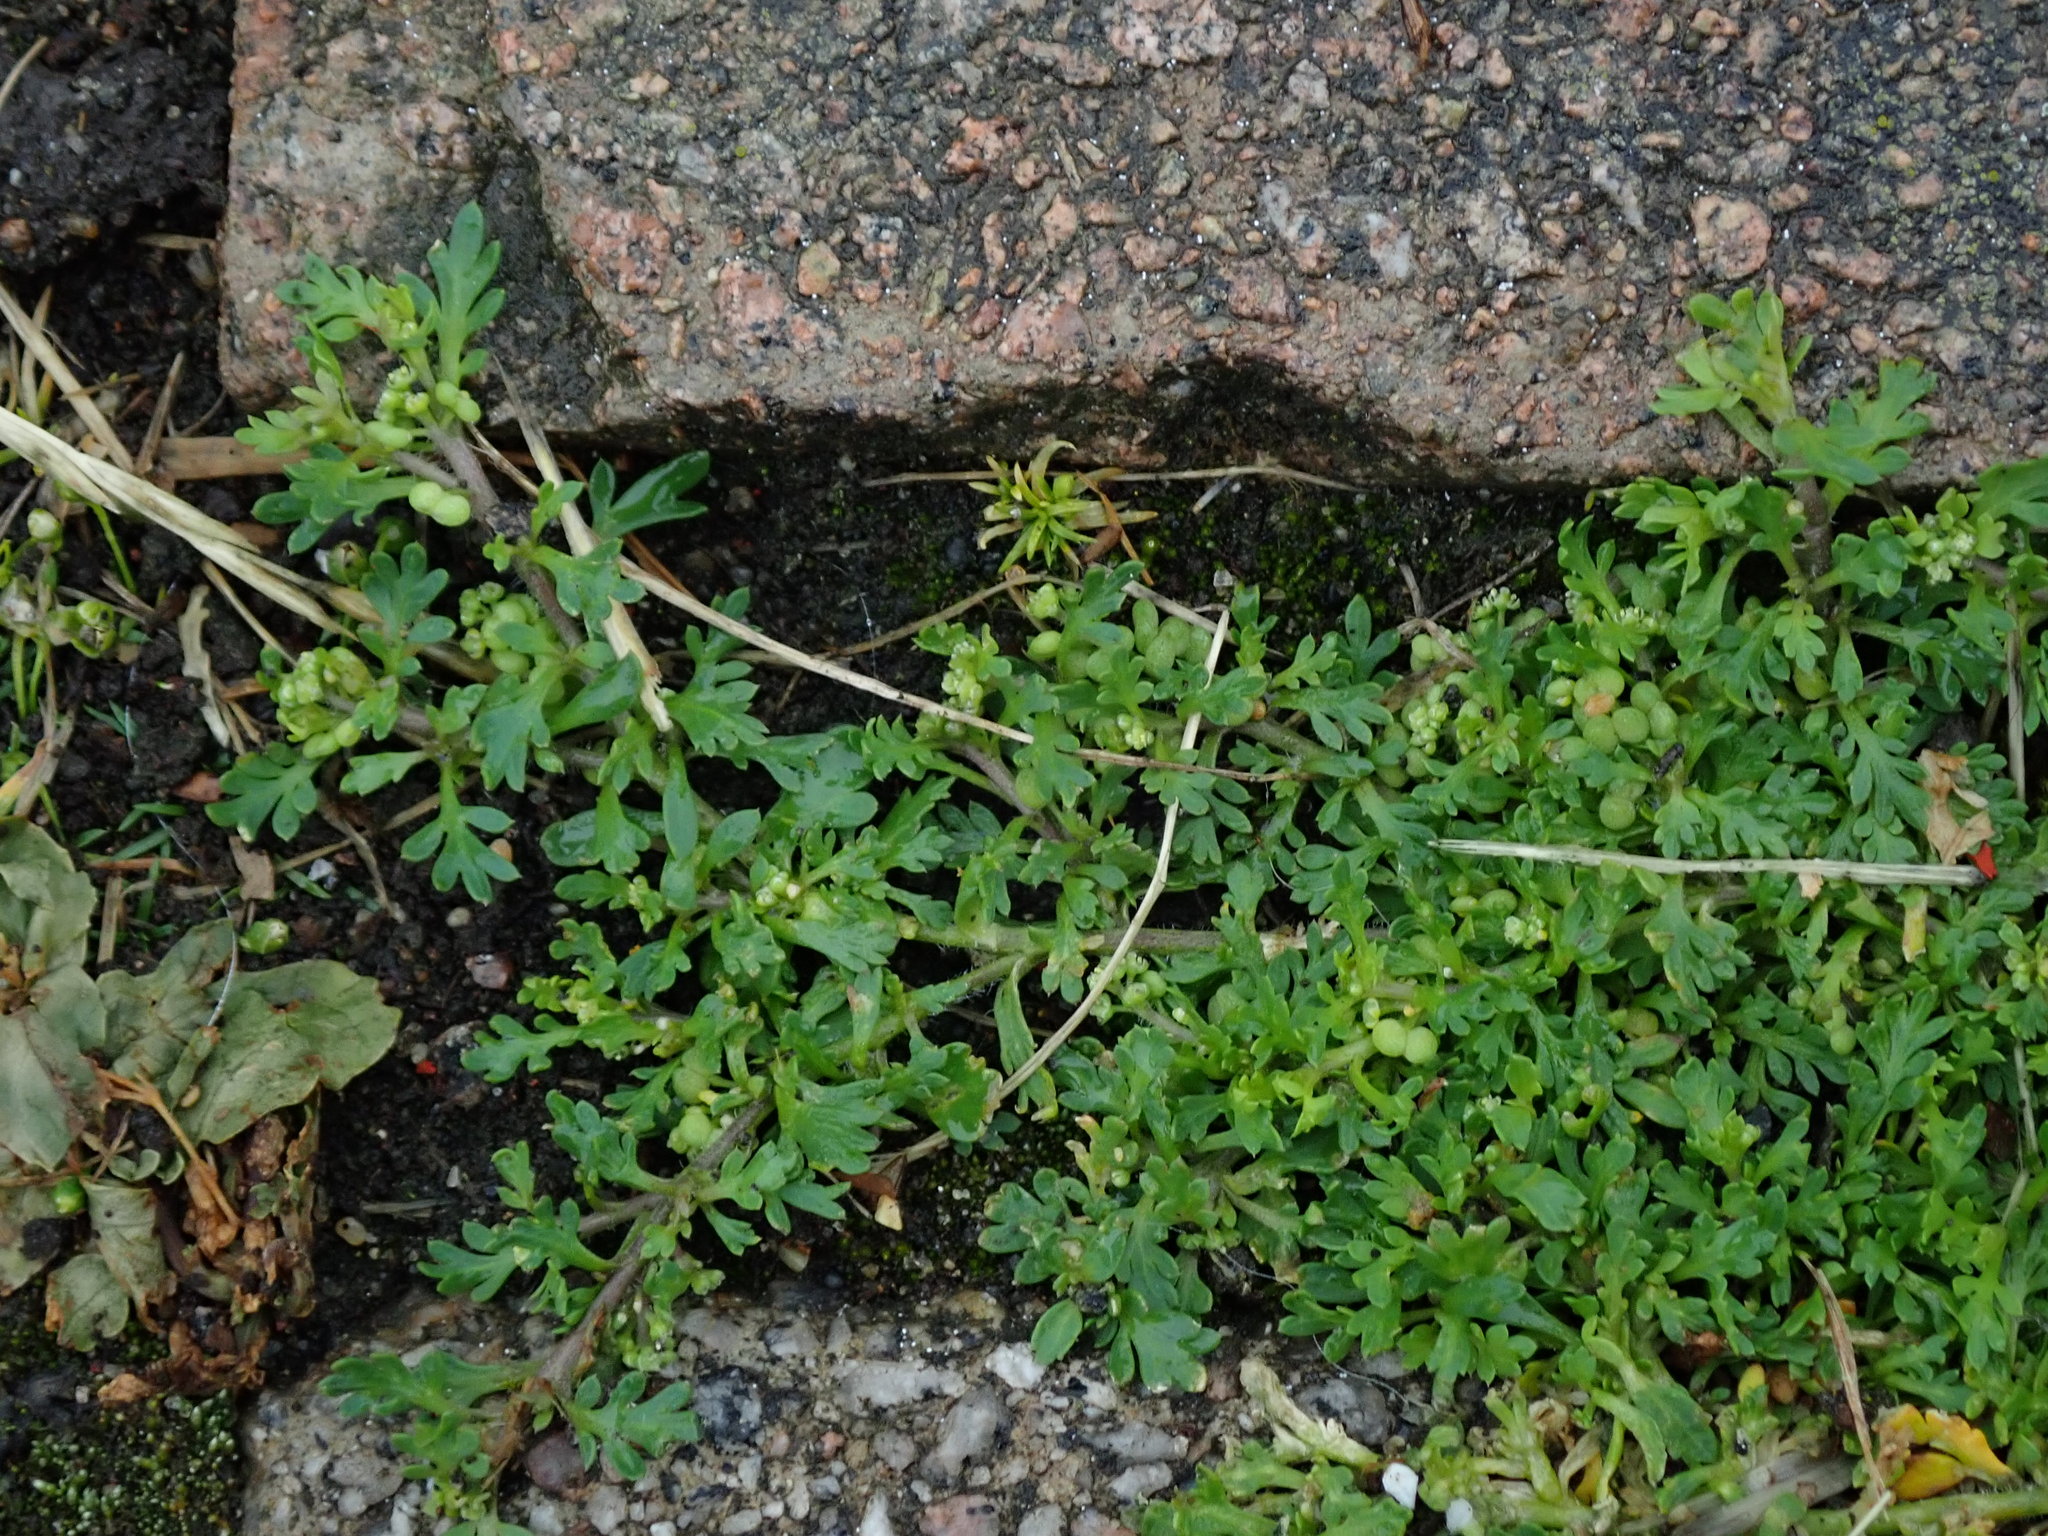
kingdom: Plantae
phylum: Tracheophyta
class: Magnoliopsida
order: Brassicales
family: Brassicaceae
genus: Lepidium
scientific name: Lepidium didymum
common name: Lesser swinecress
